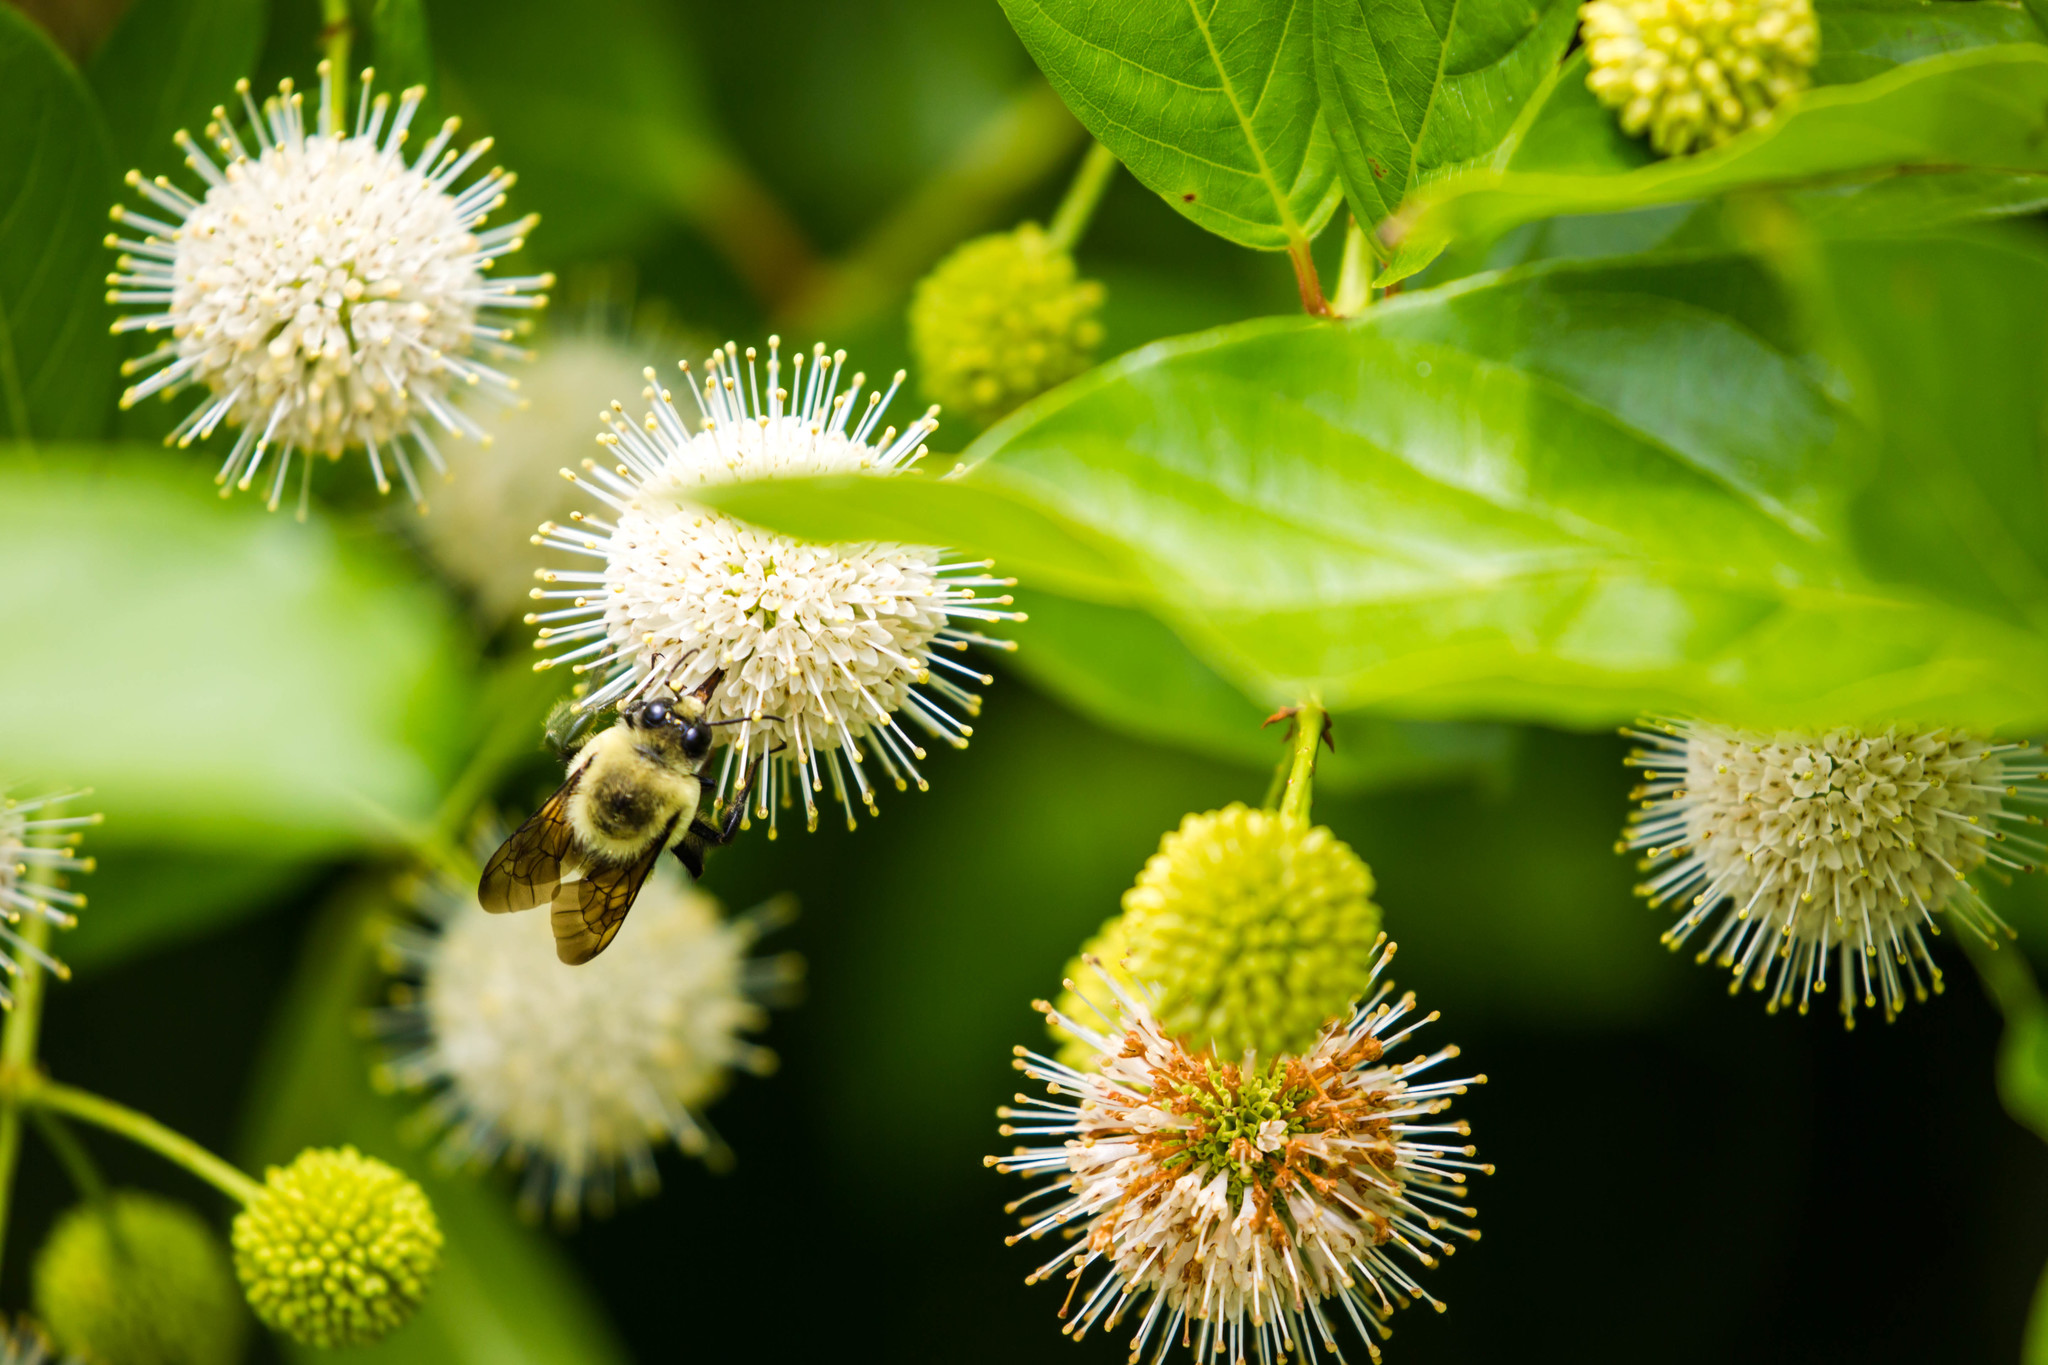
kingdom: Animalia
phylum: Arthropoda
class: Insecta
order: Hymenoptera
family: Apidae
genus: Bombus
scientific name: Bombus griseocollis
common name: Brown-belted bumble bee
